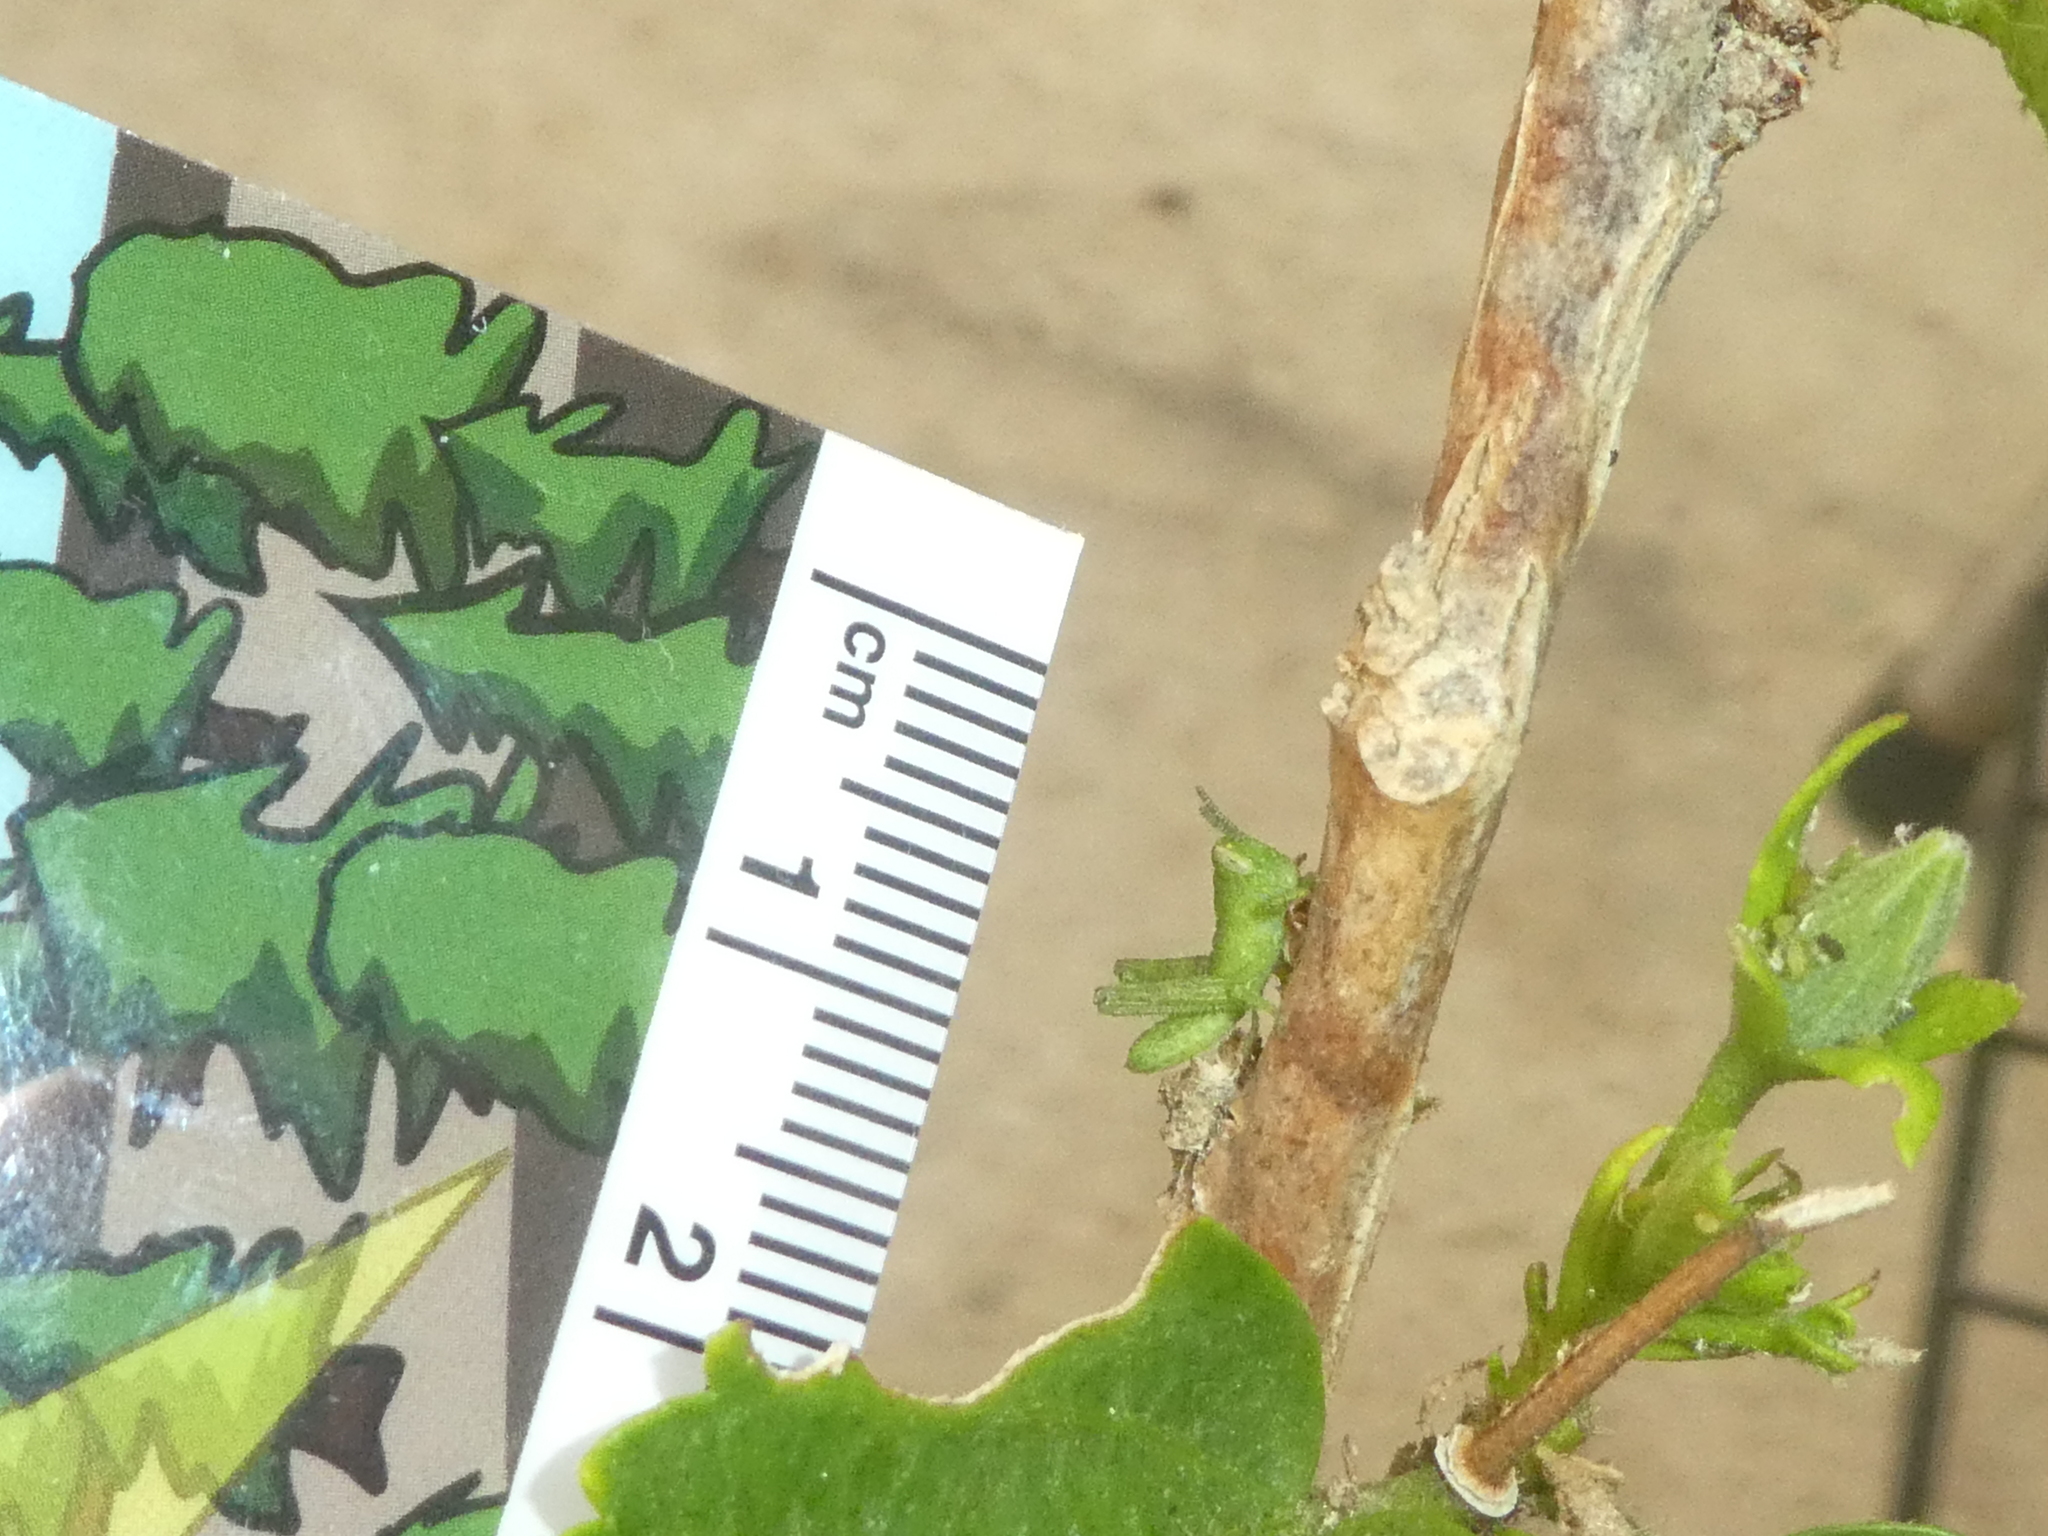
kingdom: Animalia
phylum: Arthropoda
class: Insecta
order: Orthoptera
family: Acrididae
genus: Schistocerca
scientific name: Schistocerca nitens
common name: Vagrant grasshopper
